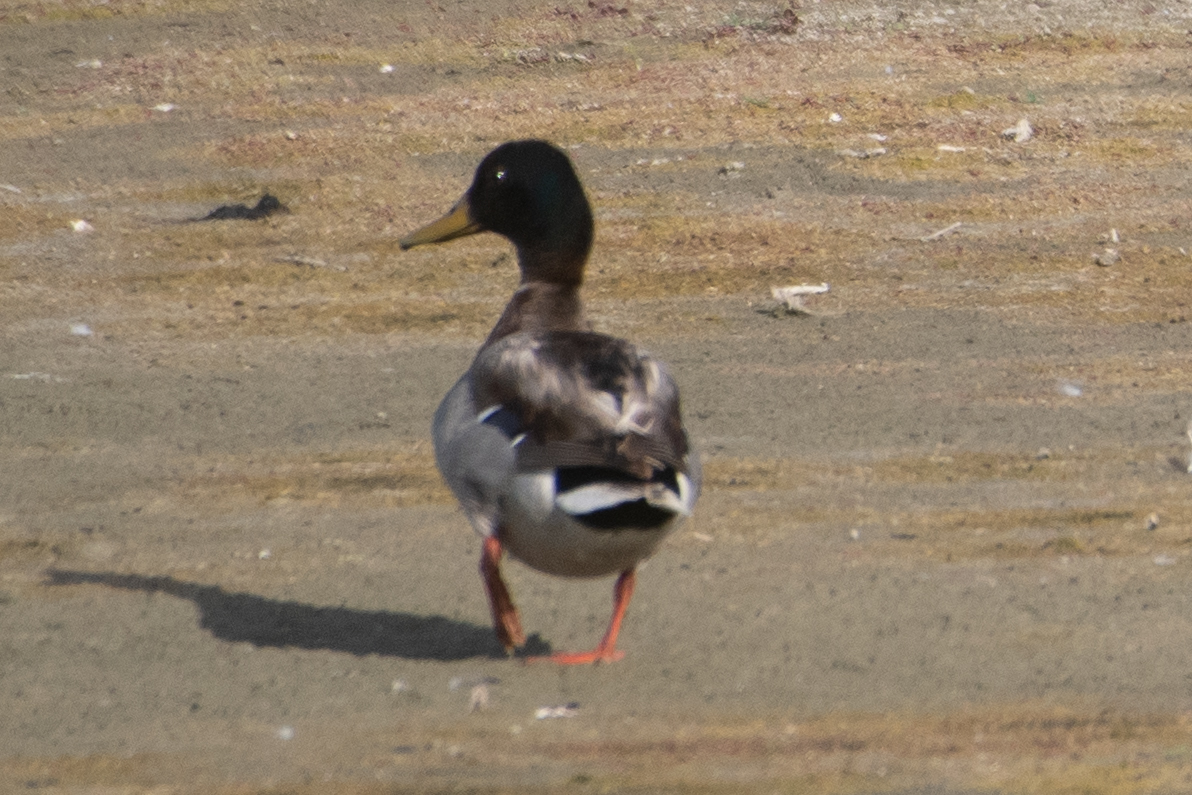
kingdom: Animalia
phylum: Chordata
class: Aves
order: Anseriformes
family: Anatidae
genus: Anas
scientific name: Anas platyrhynchos
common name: Mallard
